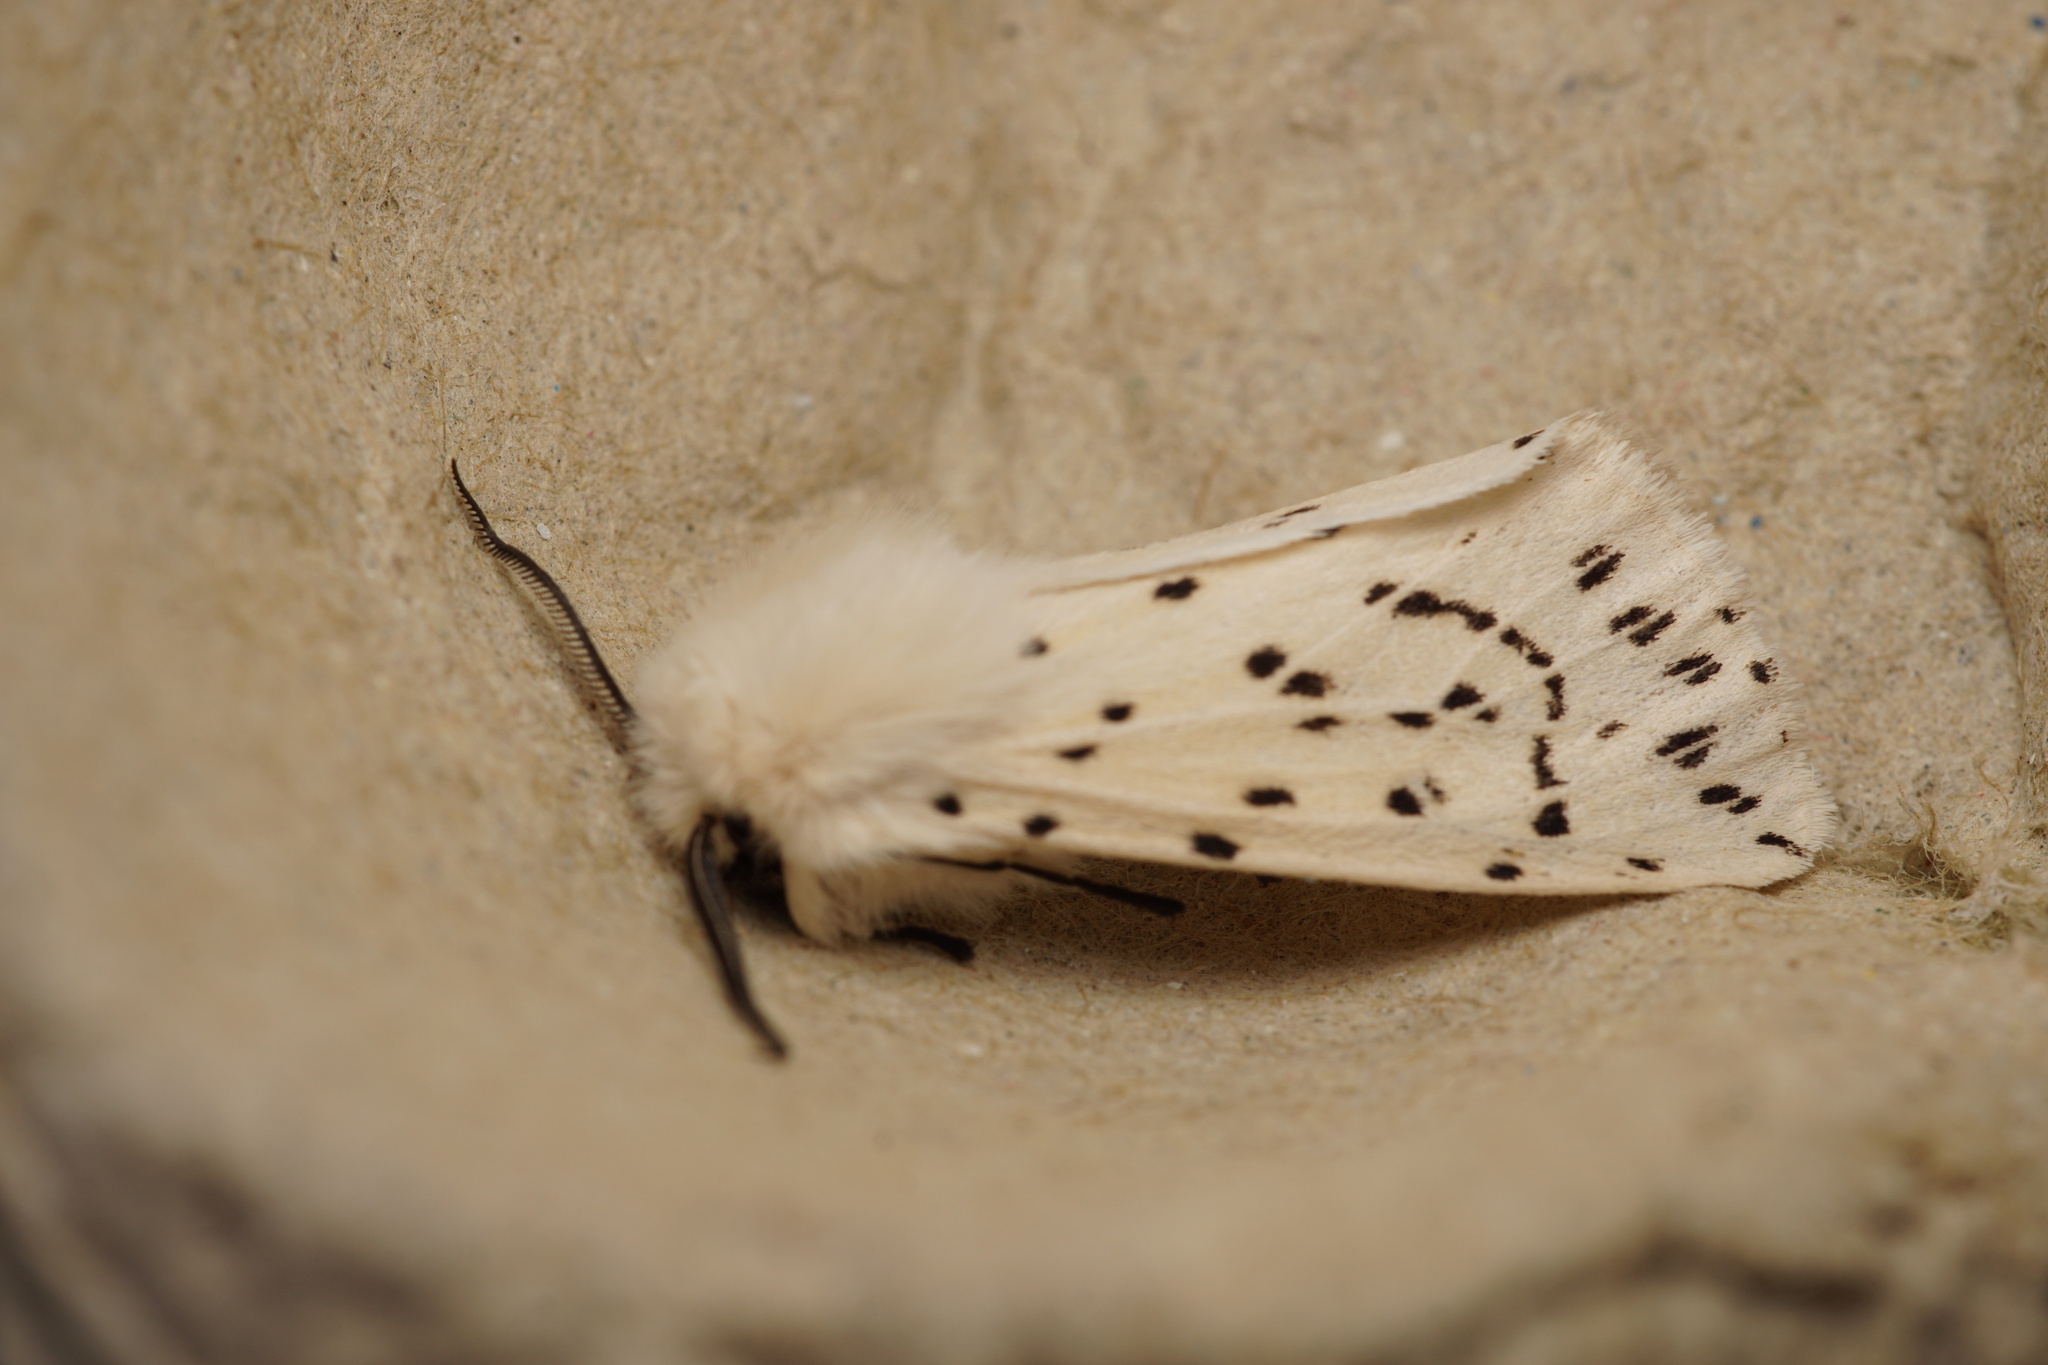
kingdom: Animalia
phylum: Arthropoda
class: Insecta
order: Lepidoptera
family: Erebidae
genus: Spilosoma
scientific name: Spilosoma lubricipeda
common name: White ermine
